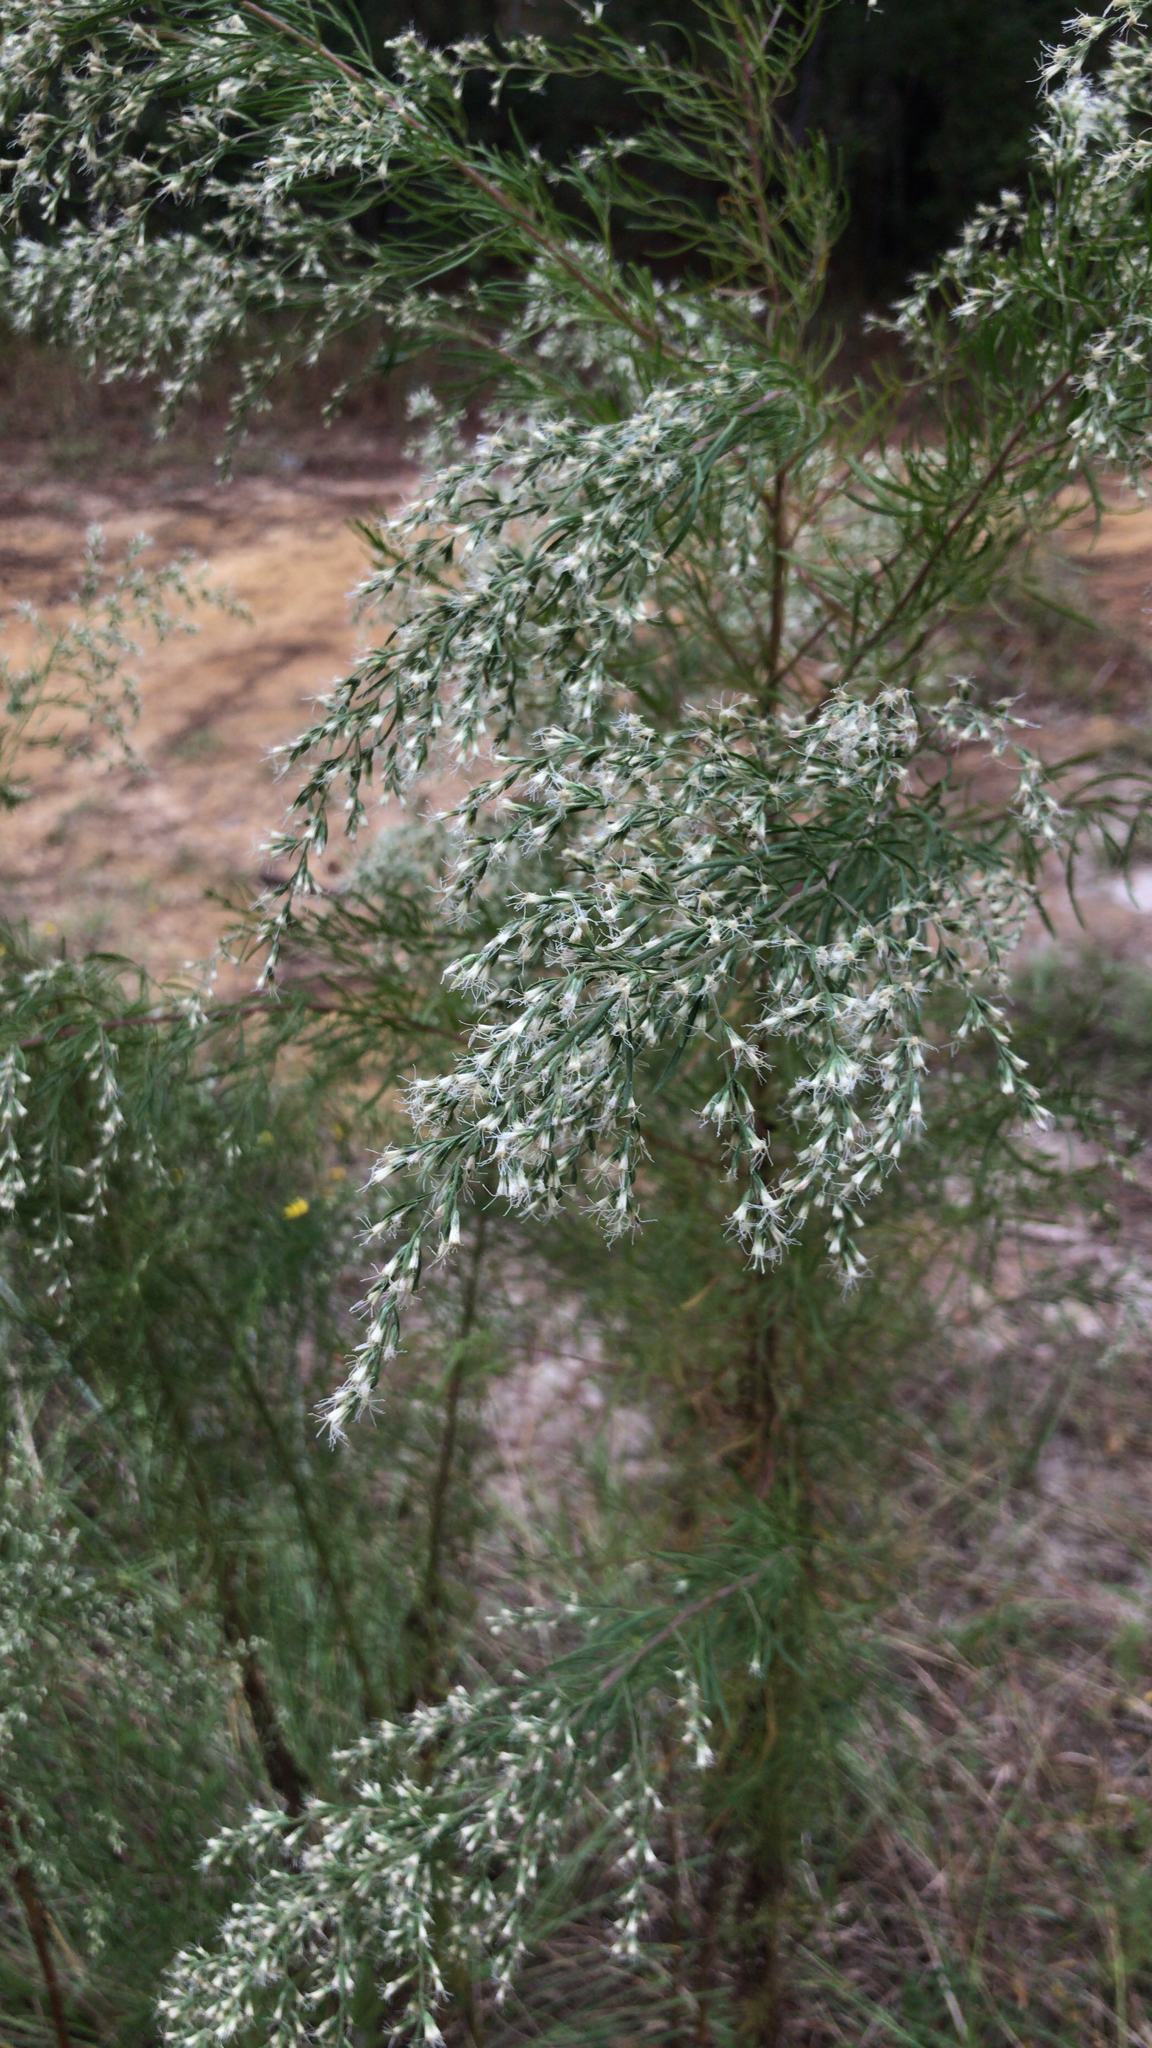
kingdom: Plantae
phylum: Tracheophyta
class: Magnoliopsida
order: Asterales
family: Asteraceae
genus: Eupatorium
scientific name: Eupatorium capillifolium
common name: Dog-fennel
